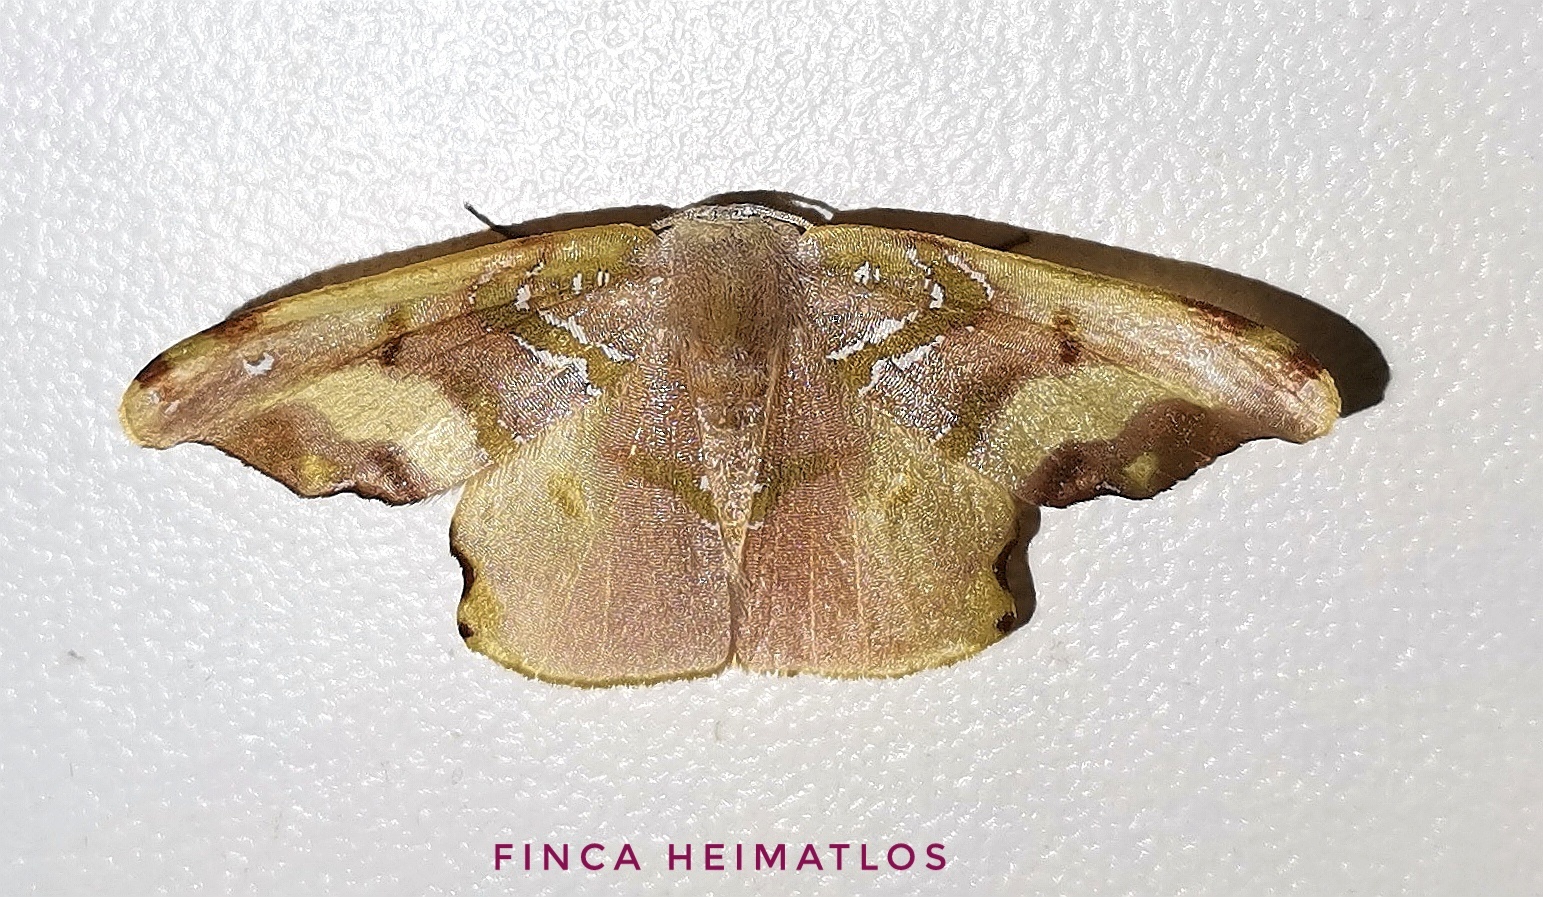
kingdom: Animalia
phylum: Arthropoda
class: Insecta
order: Lepidoptera
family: Geometridae
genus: Trotogonia
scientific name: Trotogonia castraria
